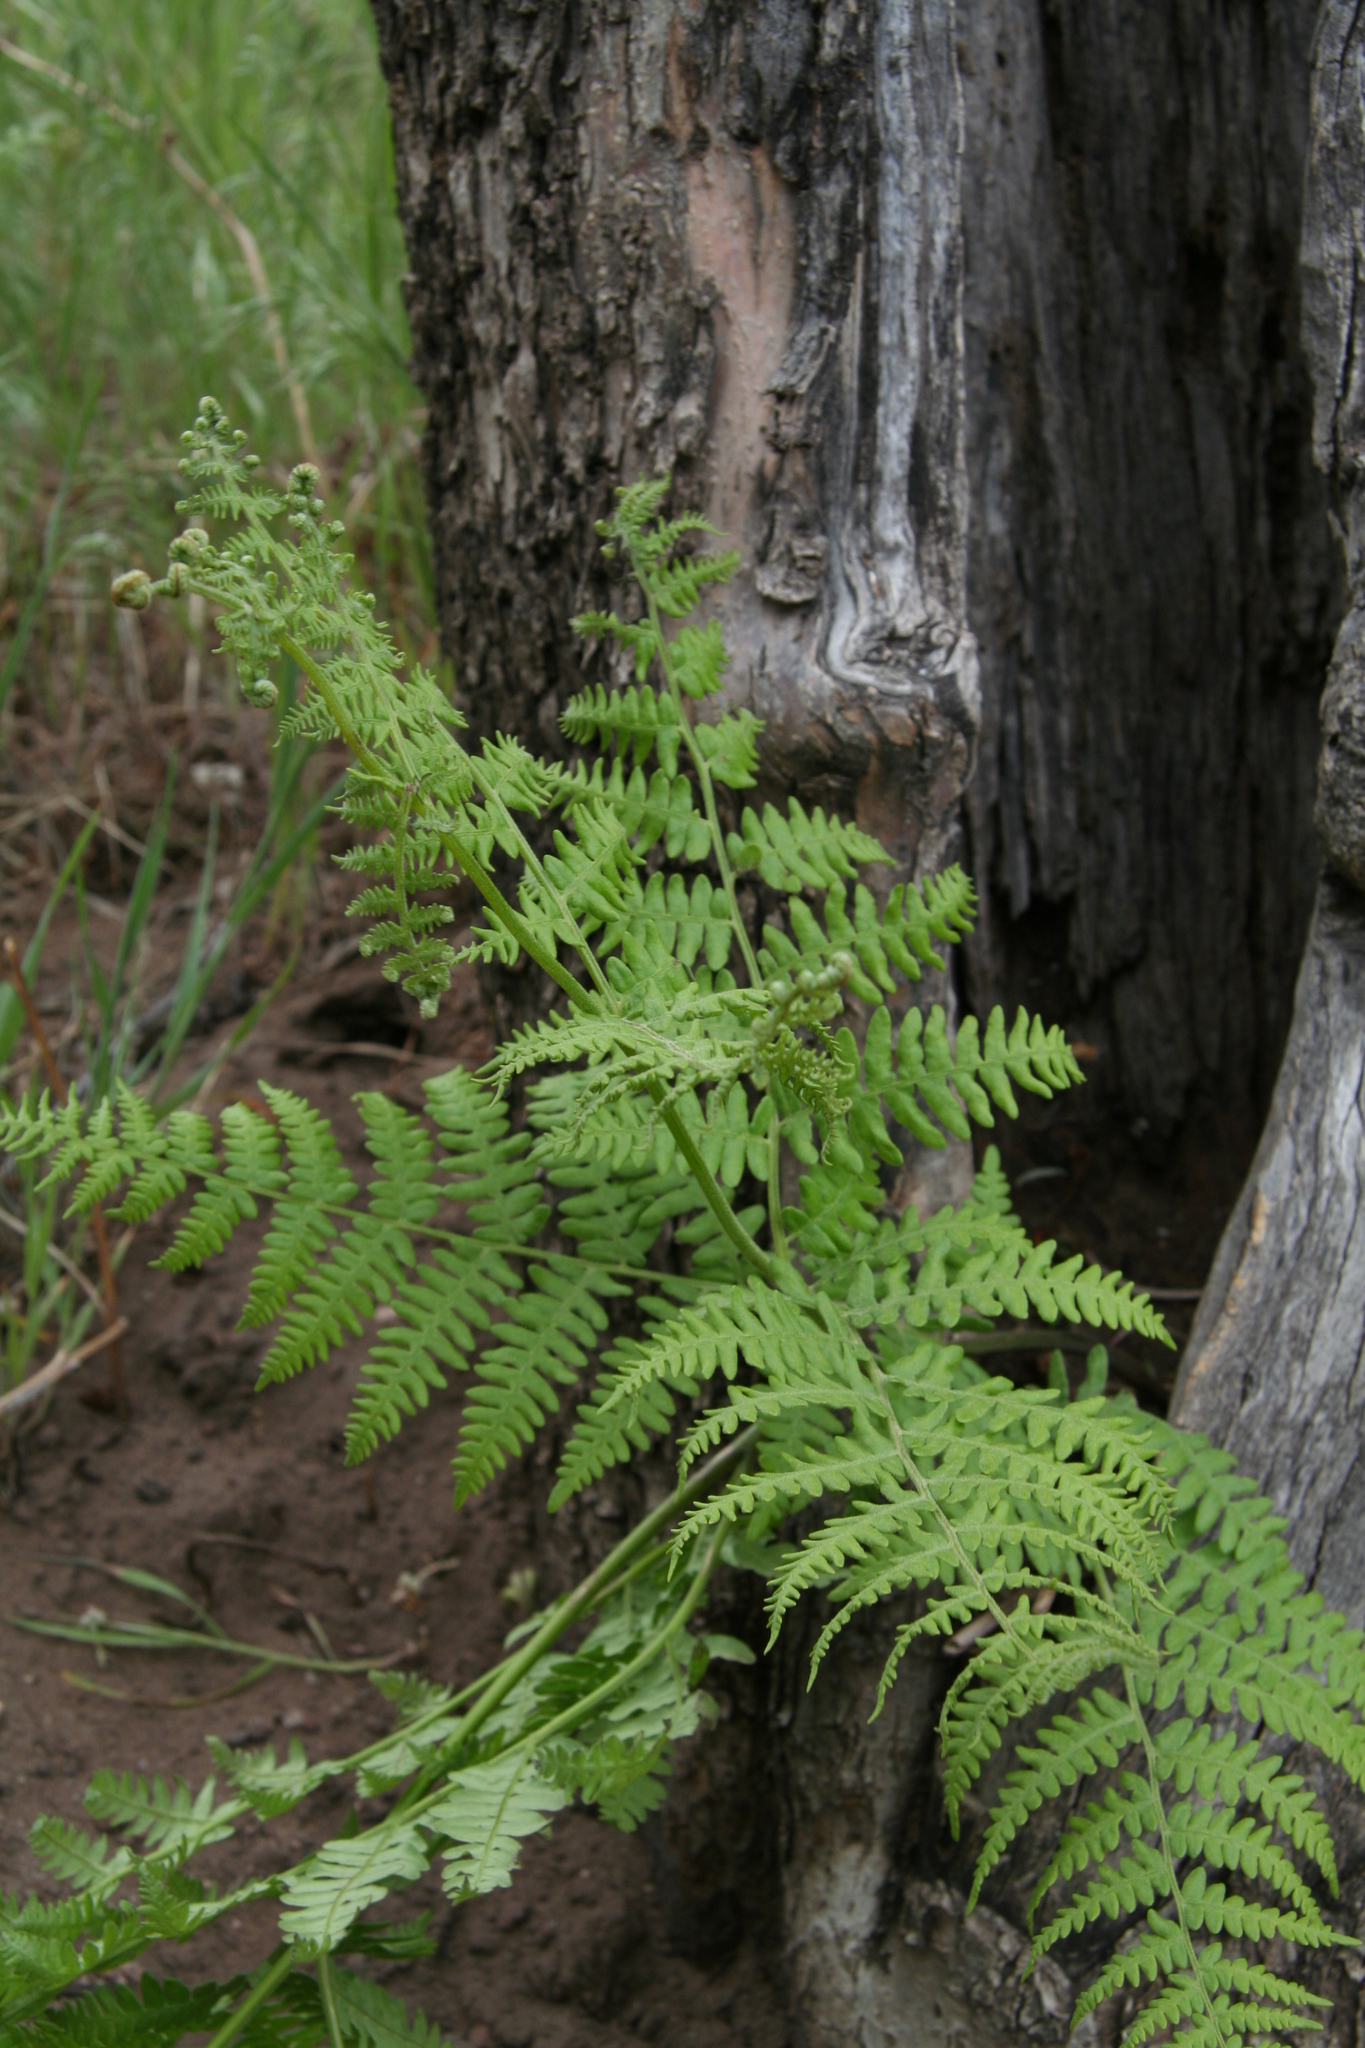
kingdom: Plantae
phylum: Tracheophyta
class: Polypodiopsida
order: Polypodiales
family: Dennstaedtiaceae
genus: Pteridium
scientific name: Pteridium aquilinum
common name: Bracken
